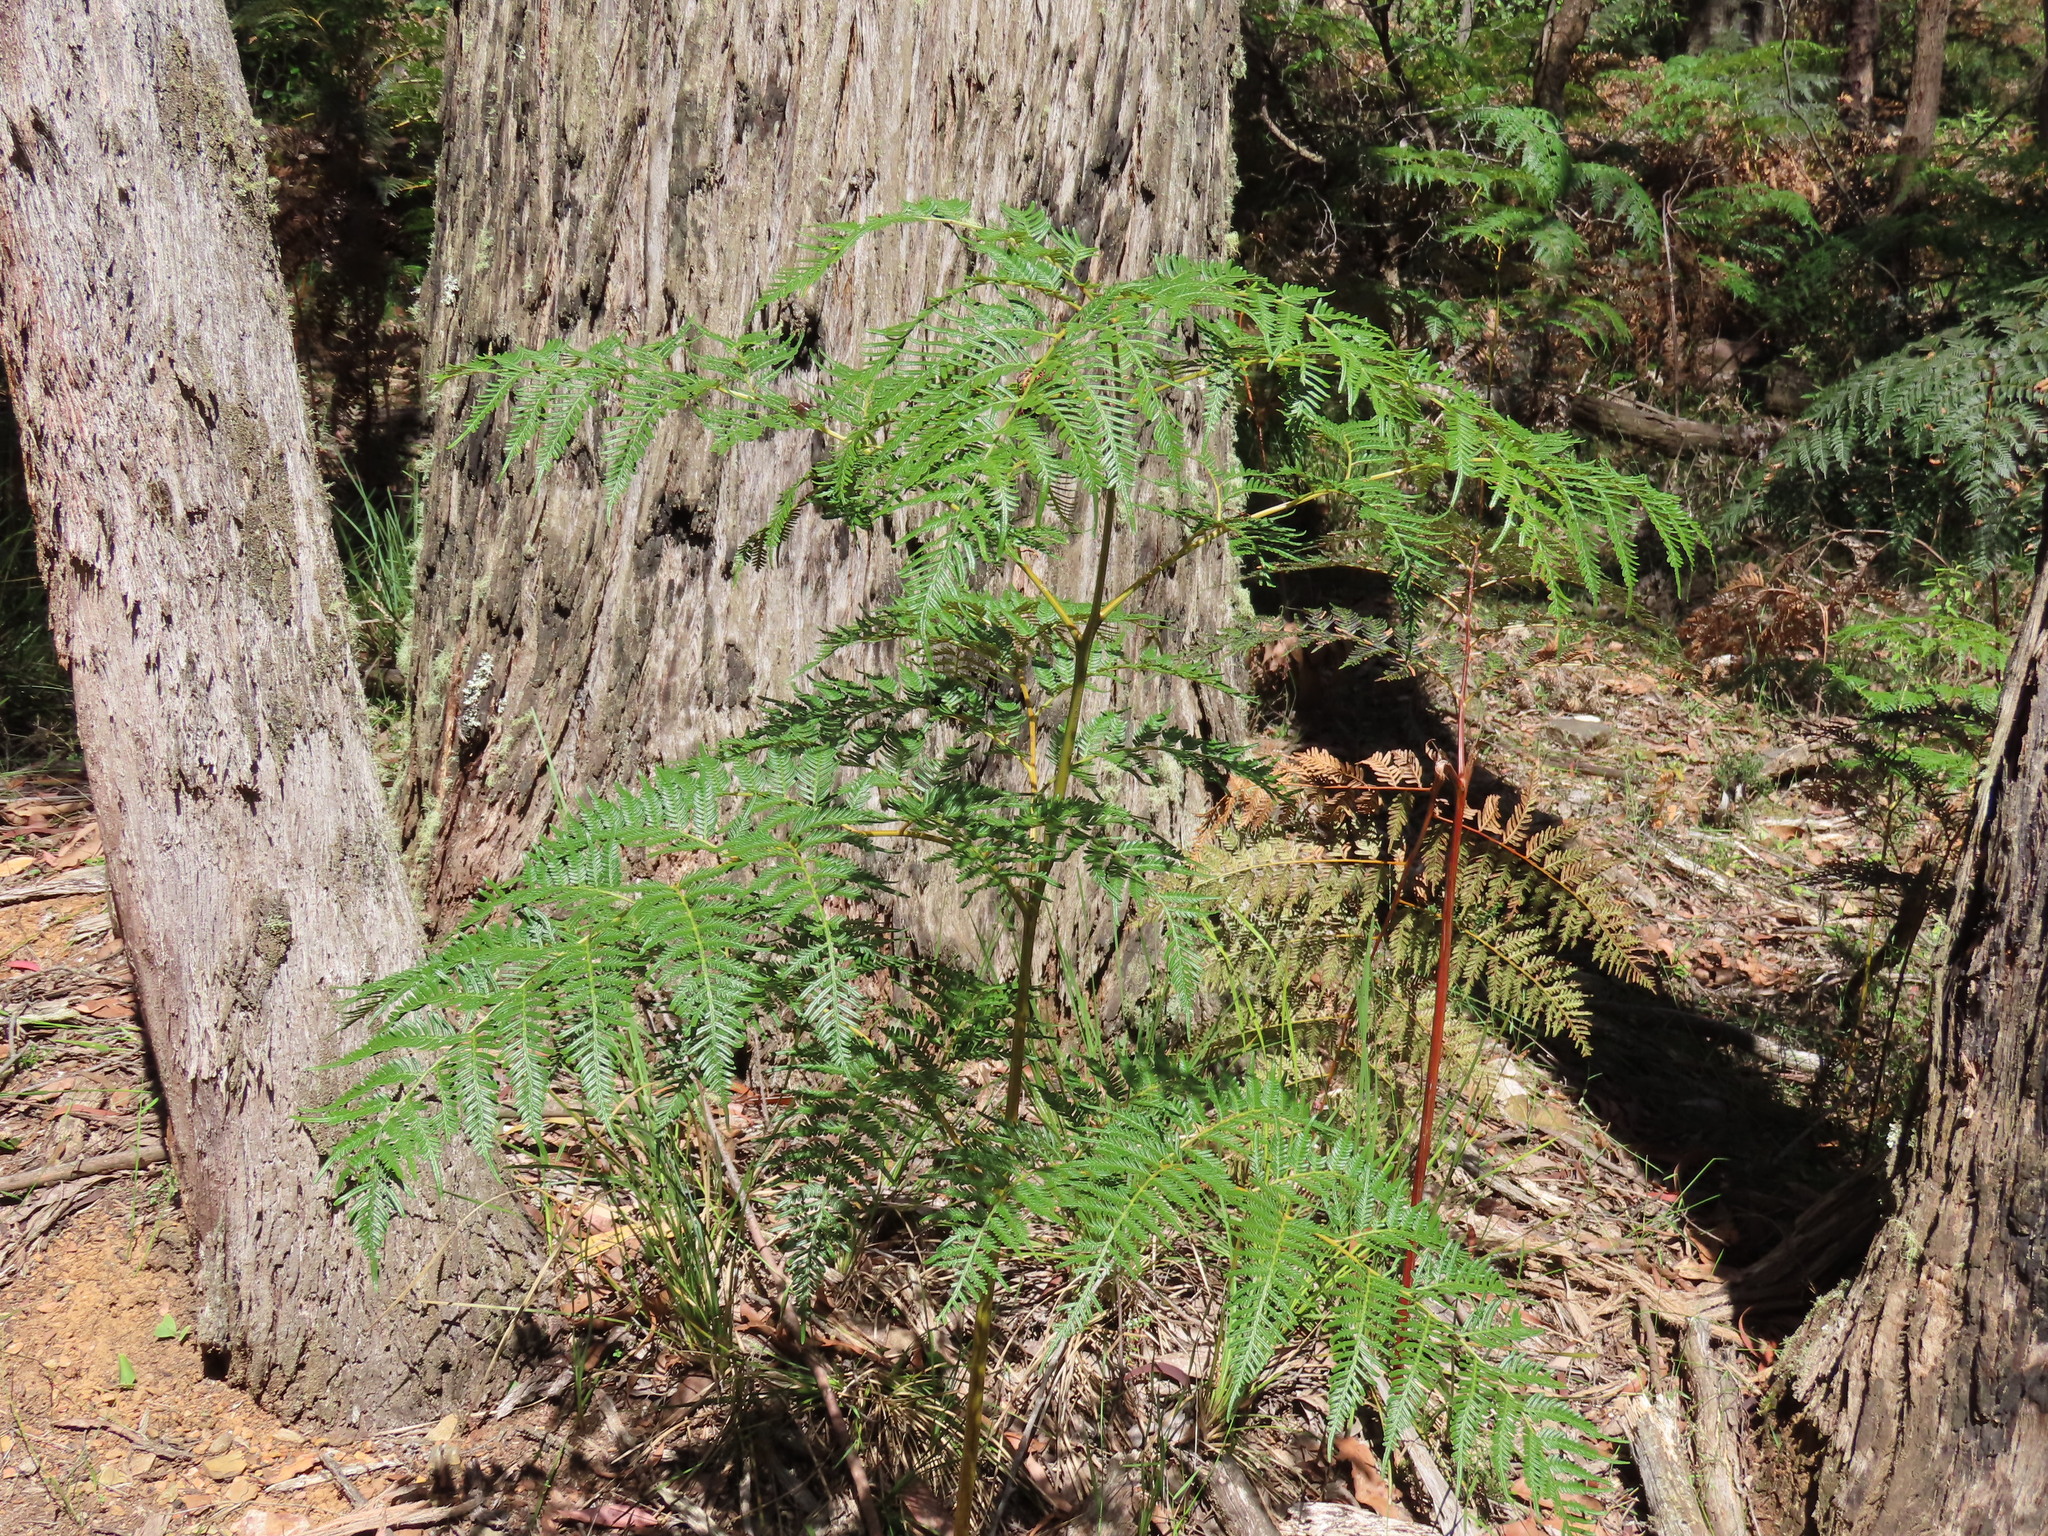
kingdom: Plantae
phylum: Tracheophyta
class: Polypodiopsida
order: Polypodiales
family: Dennstaedtiaceae
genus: Pteridium
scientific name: Pteridium esculentum
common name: Bracken fern
